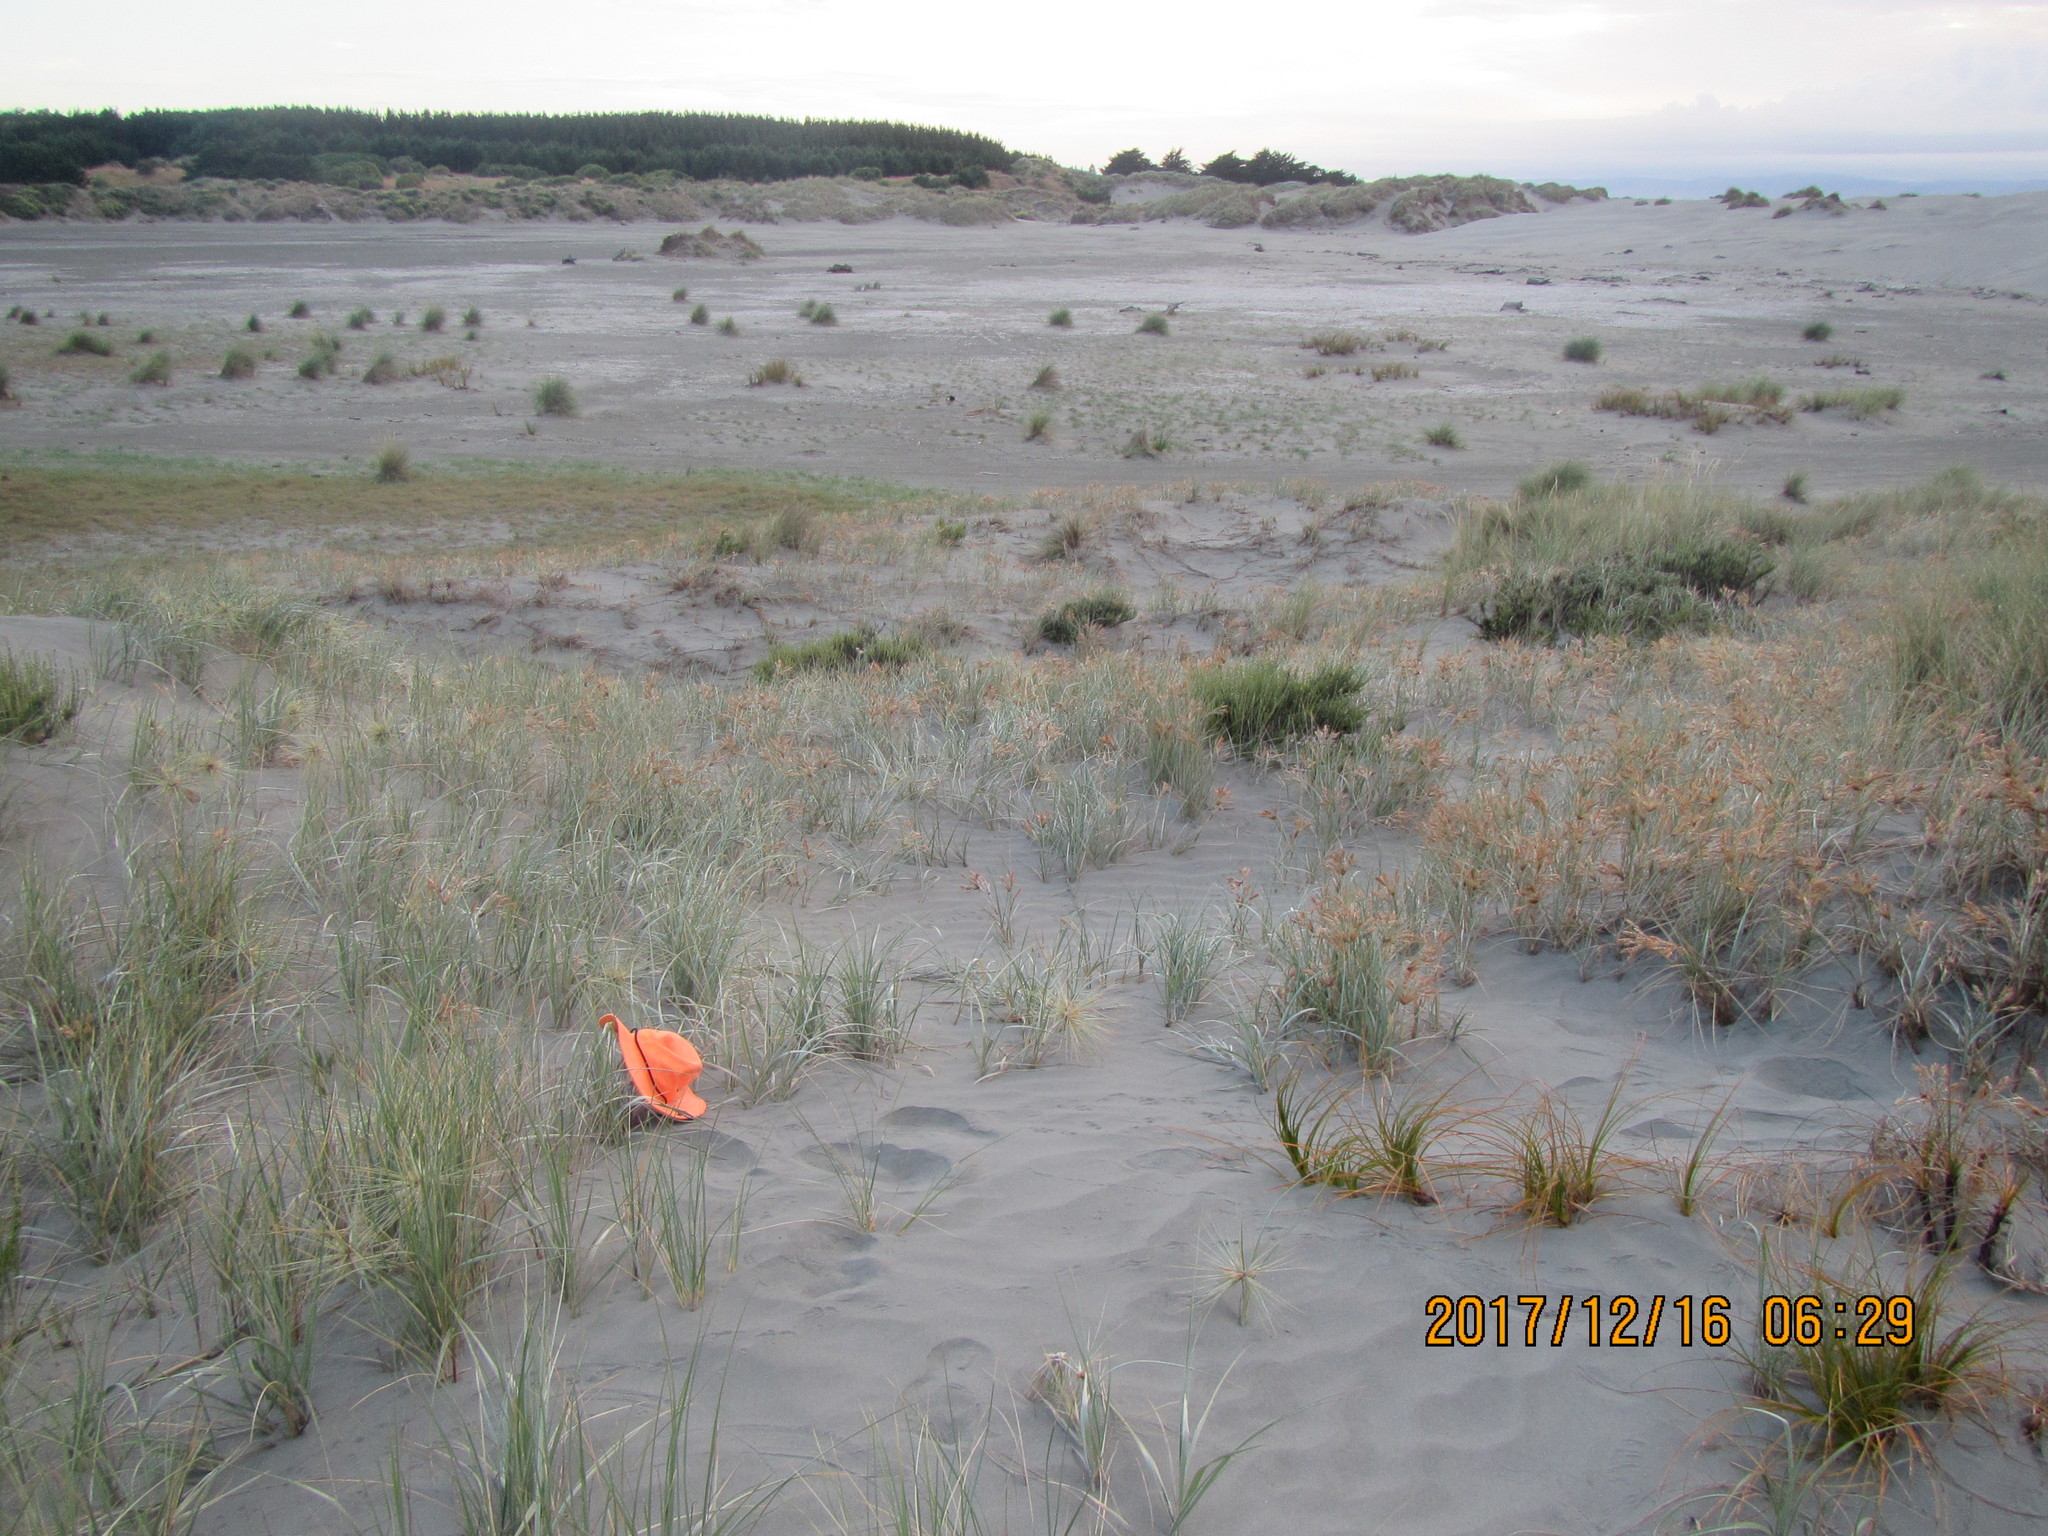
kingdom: Plantae
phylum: Tracheophyta
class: Liliopsida
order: Poales
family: Poaceae
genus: Spinifex
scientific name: Spinifex sericeus
